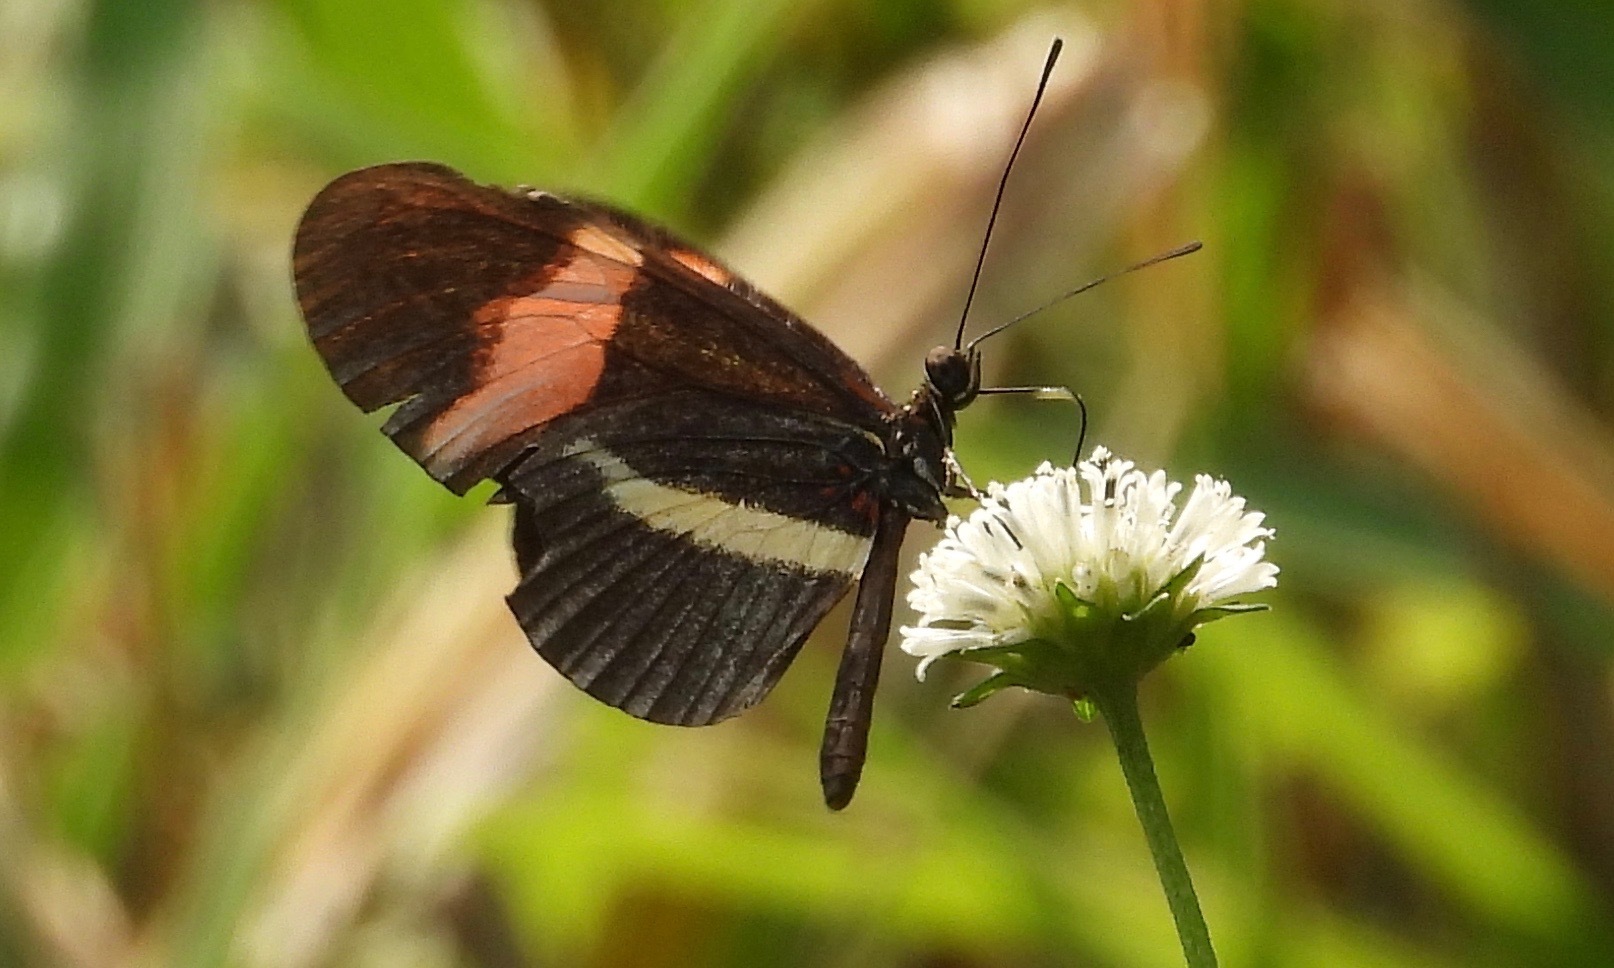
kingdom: Animalia
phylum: Arthropoda
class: Insecta
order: Lepidoptera
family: Nymphalidae
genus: Heliconius
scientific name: Heliconius erato
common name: Common patch longwing
